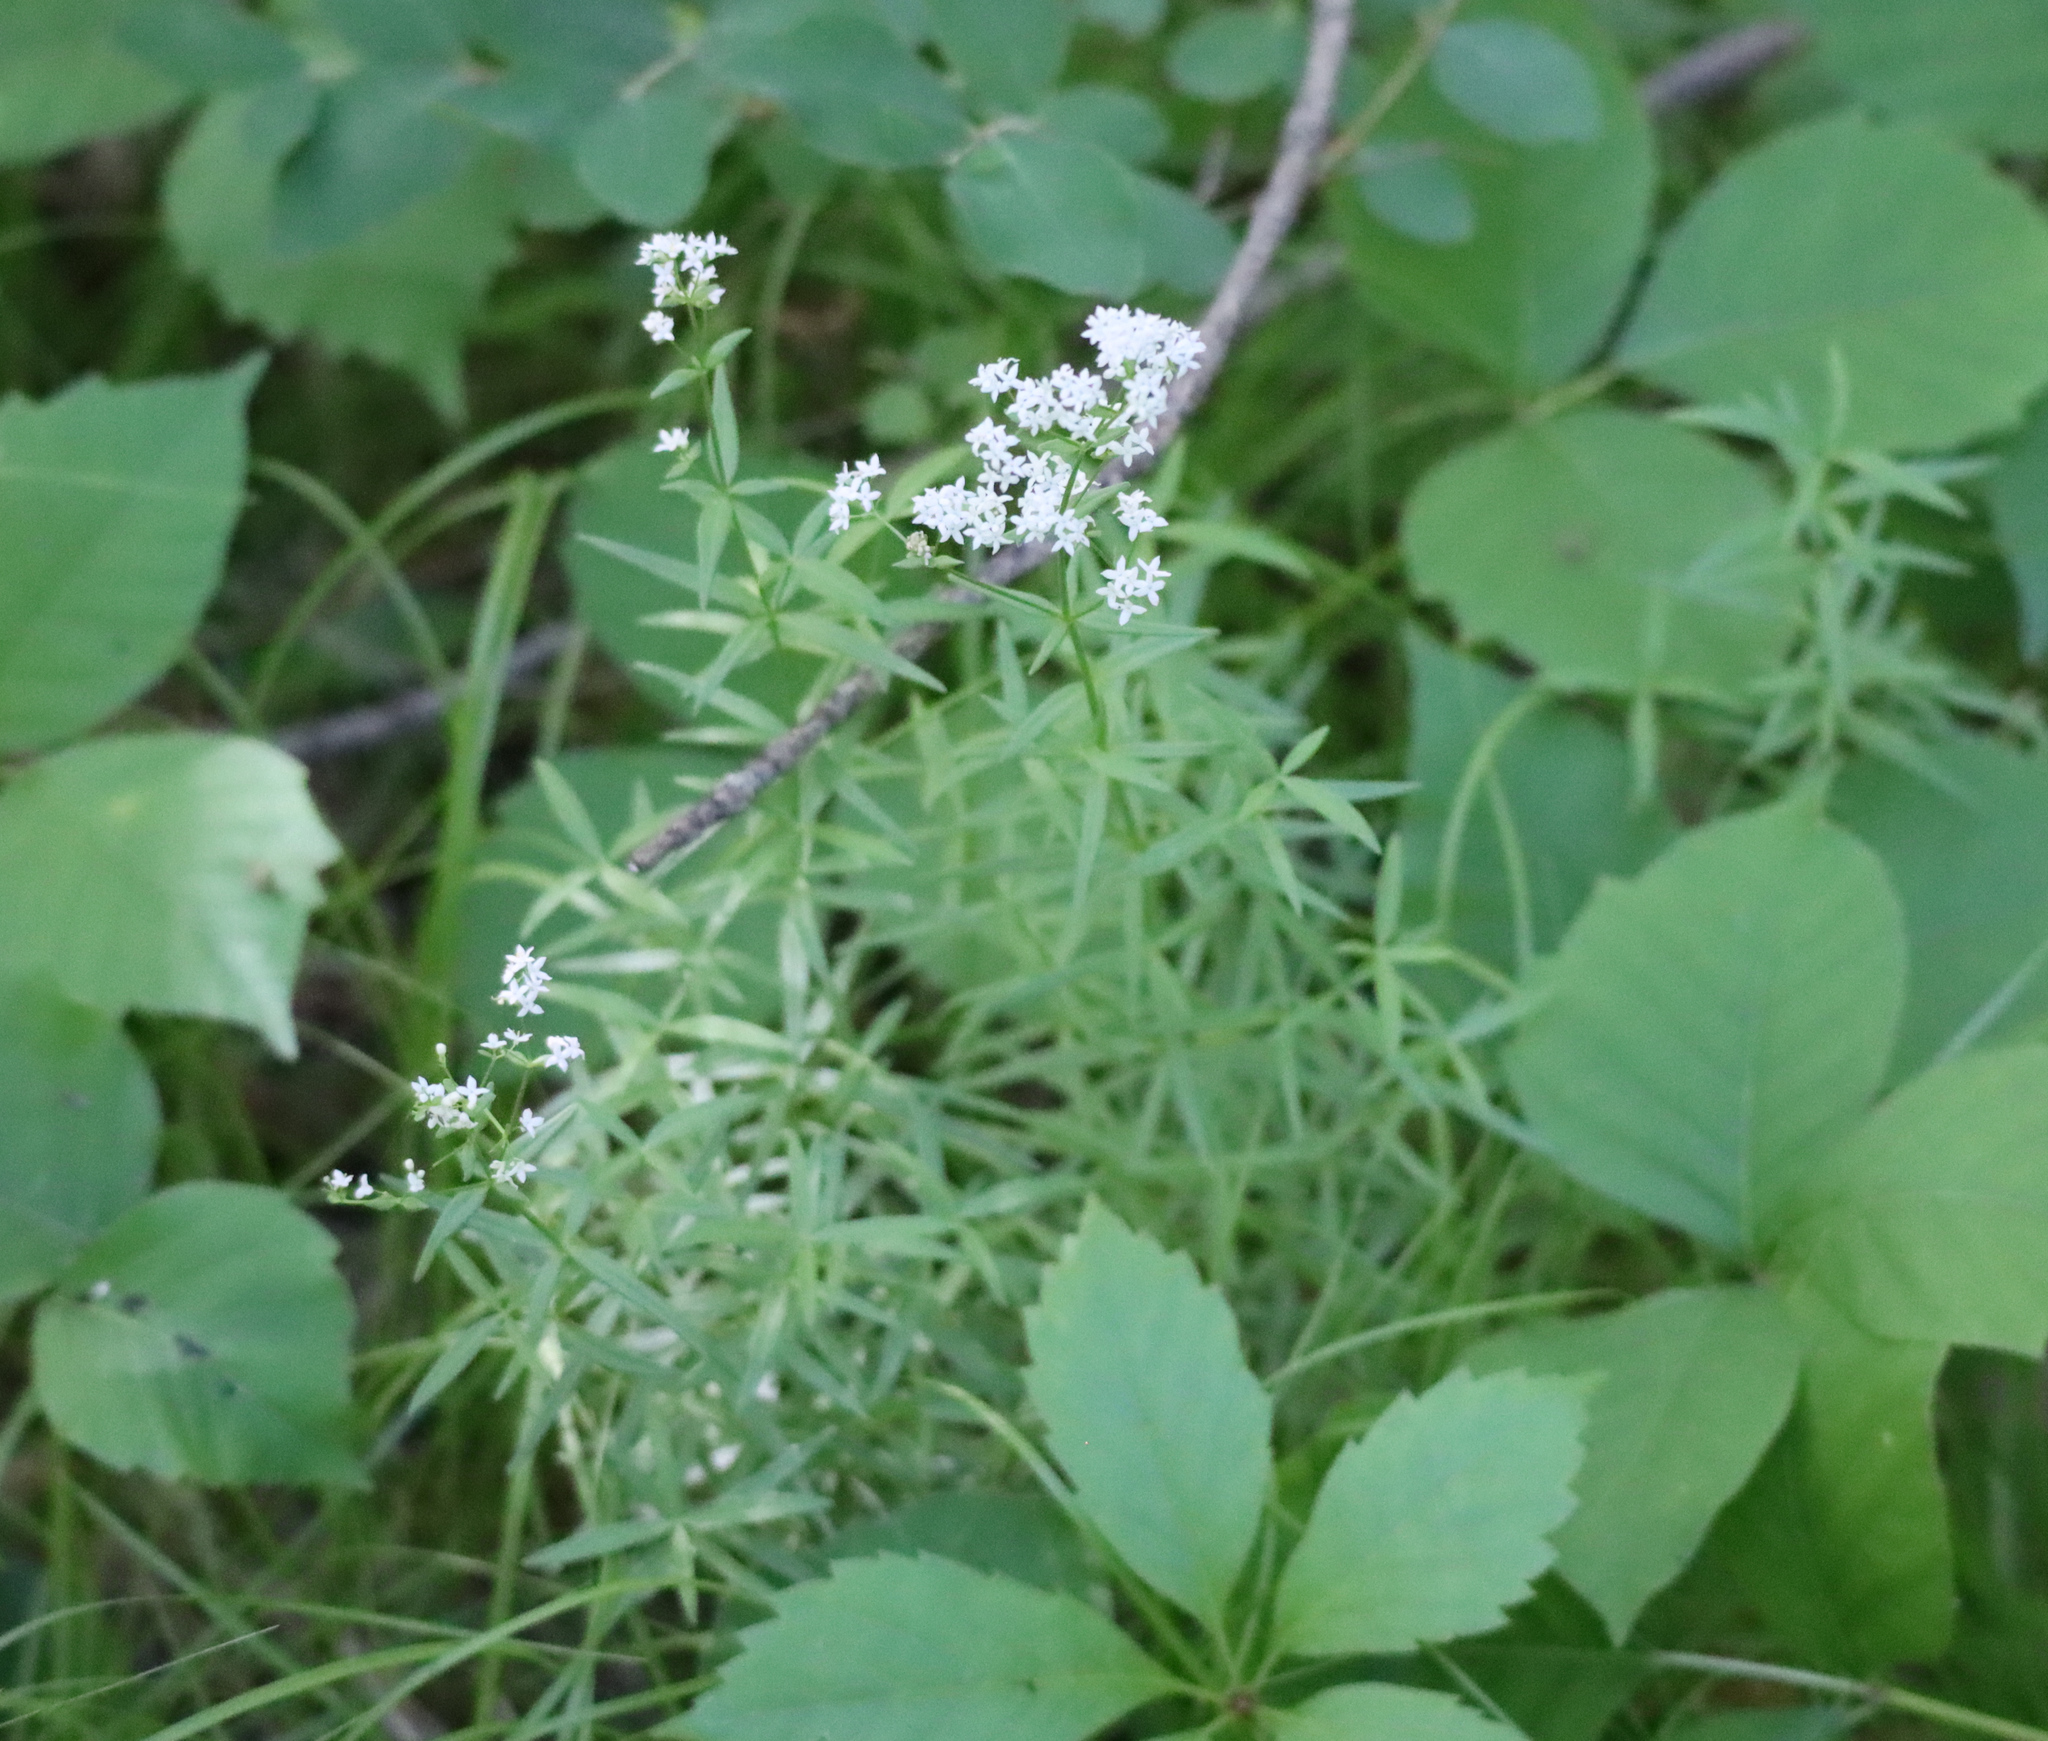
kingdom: Plantae
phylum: Tracheophyta
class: Magnoliopsida
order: Gentianales
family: Rubiaceae
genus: Galium
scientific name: Galium boreale
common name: Northern bedstraw
